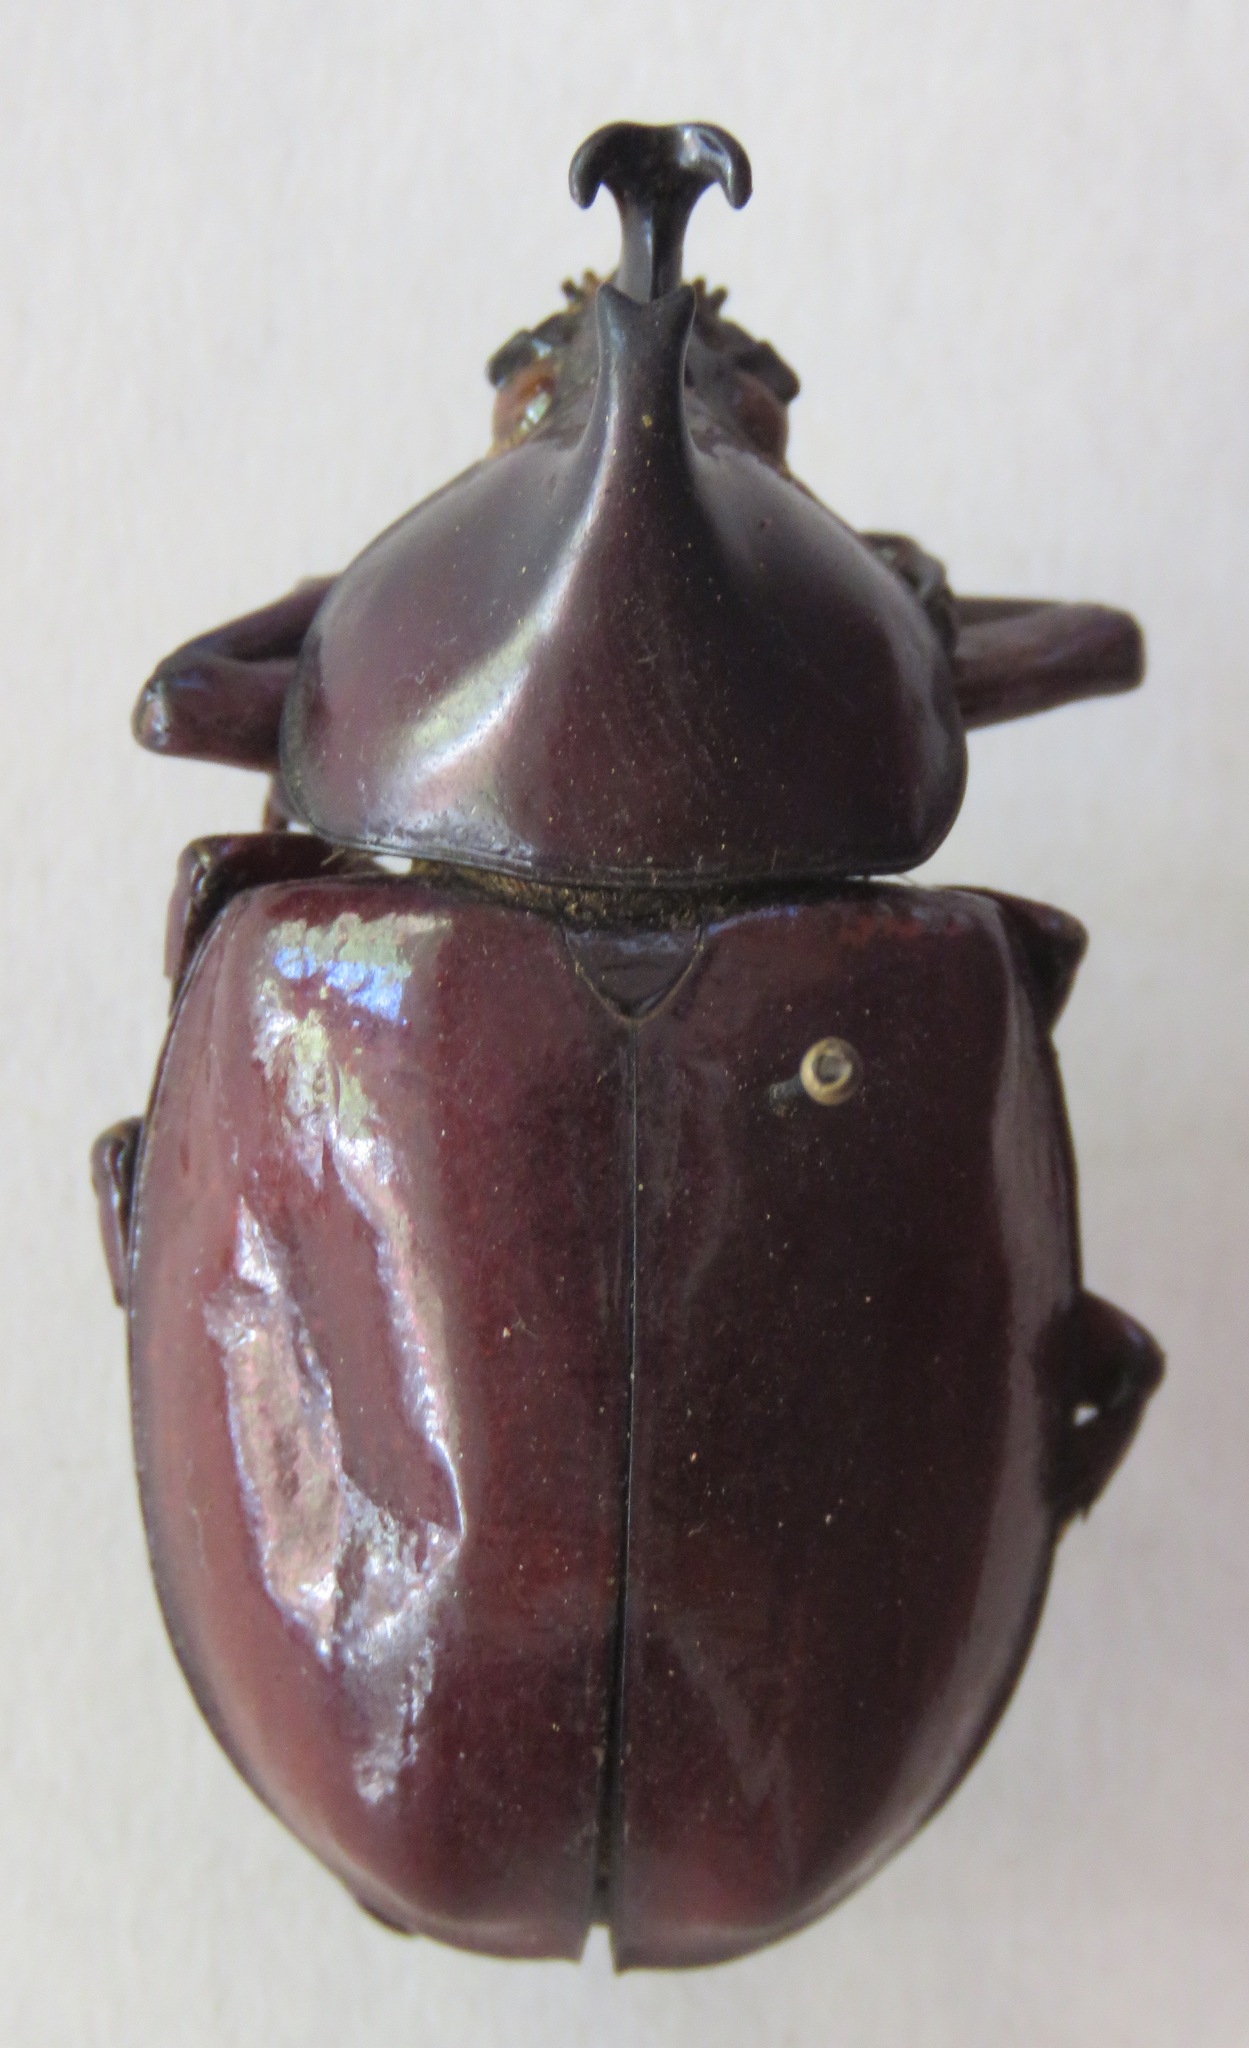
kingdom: Animalia
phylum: Arthropoda
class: Insecta
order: Coleoptera
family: Scarabaeidae
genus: Xylotrupes
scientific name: Xylotrupes sumatrensis
